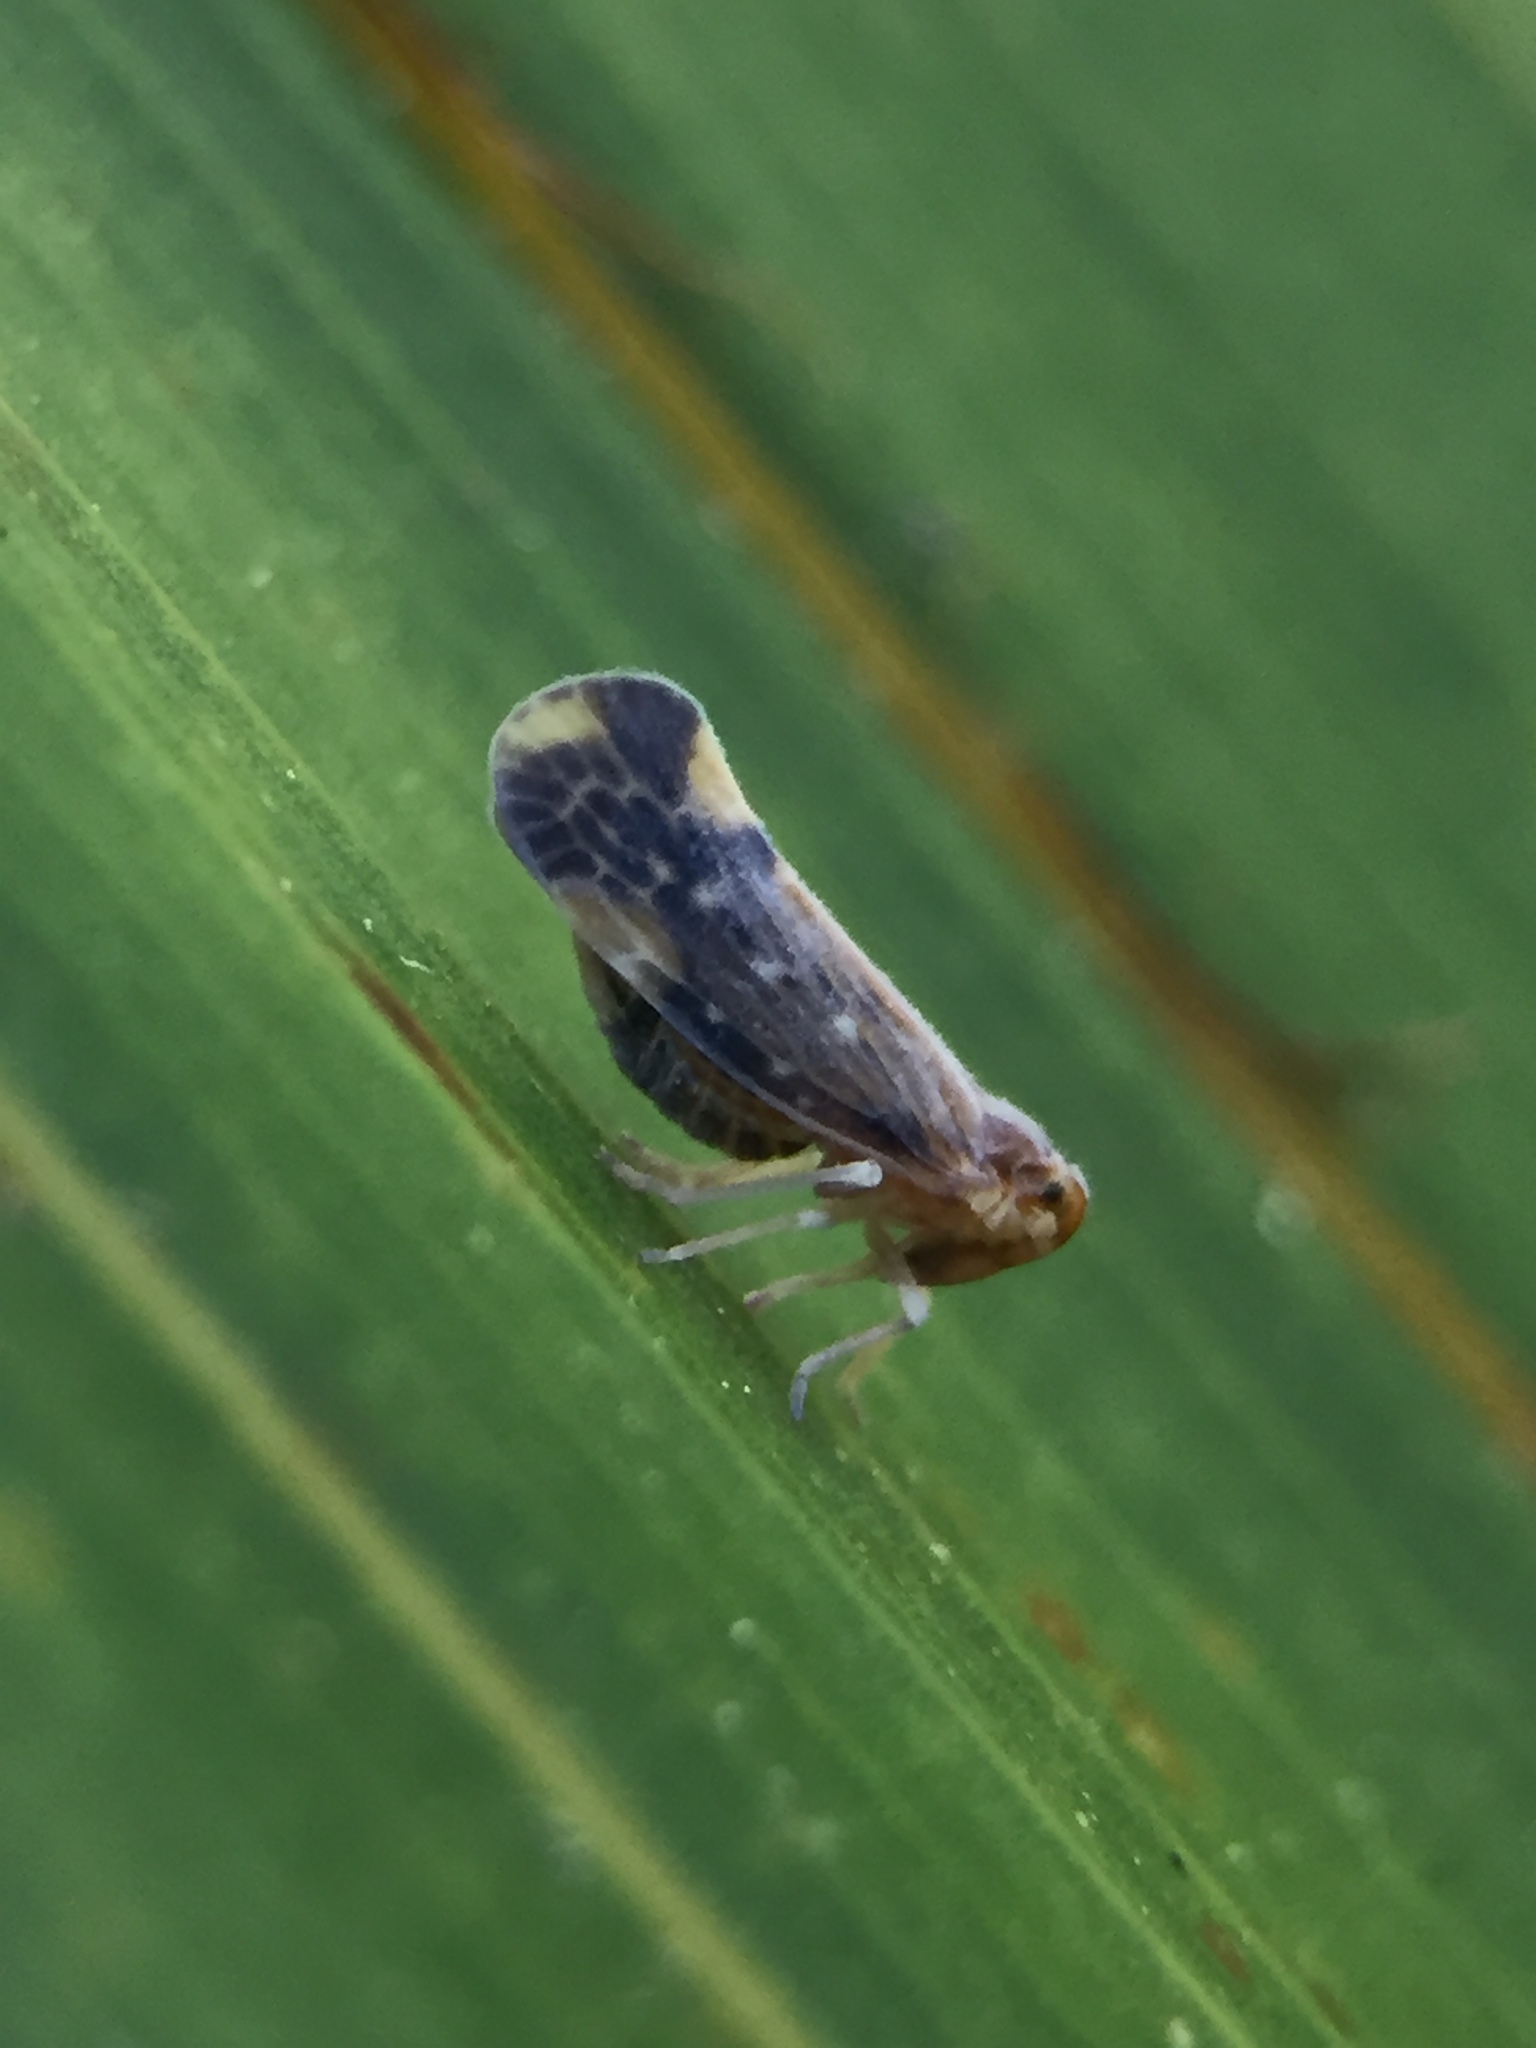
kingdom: Animalia
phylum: Arthropoda
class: Insecta
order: Hemiptera
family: Derbidae
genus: Eocenchrea
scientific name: Eocenchrea maorica
